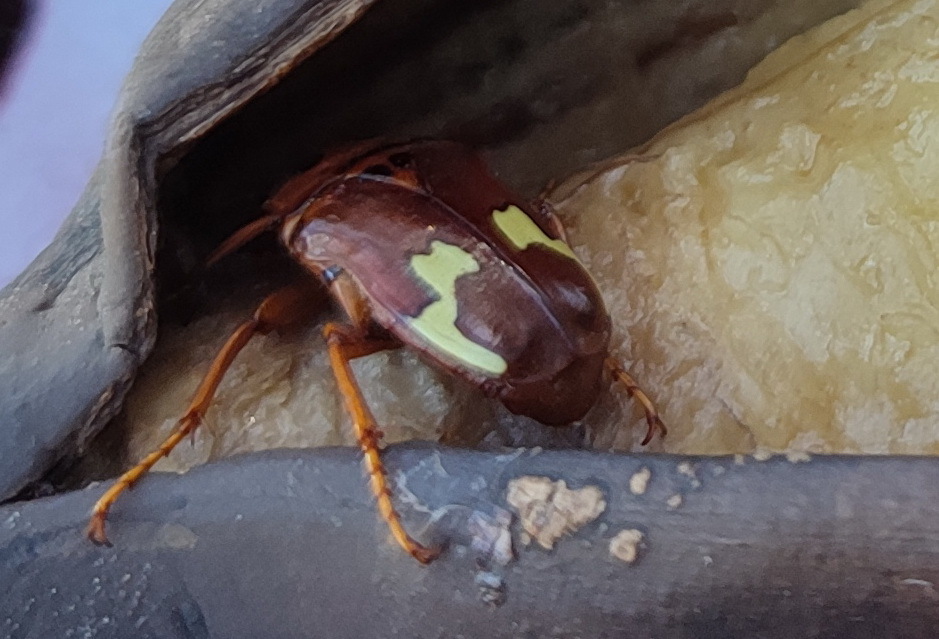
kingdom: Animalia
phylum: Arthropoda
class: Insecta
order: Coleoptera
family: Scarabaeidae
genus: Anisorrhina
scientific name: Anisorrhina flavomaculata
